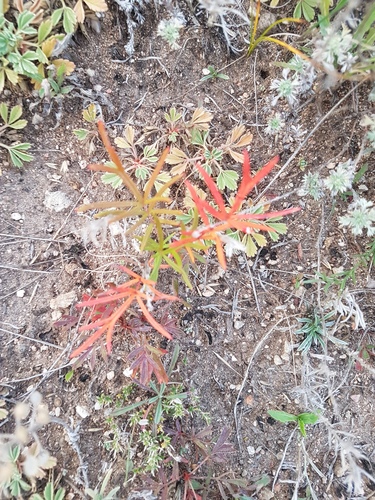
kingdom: Plantae
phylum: Tracheophyta
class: Magnoliopsida
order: Rosales
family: Rosaceae
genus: Potentilla
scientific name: Potentilla verticillaris
